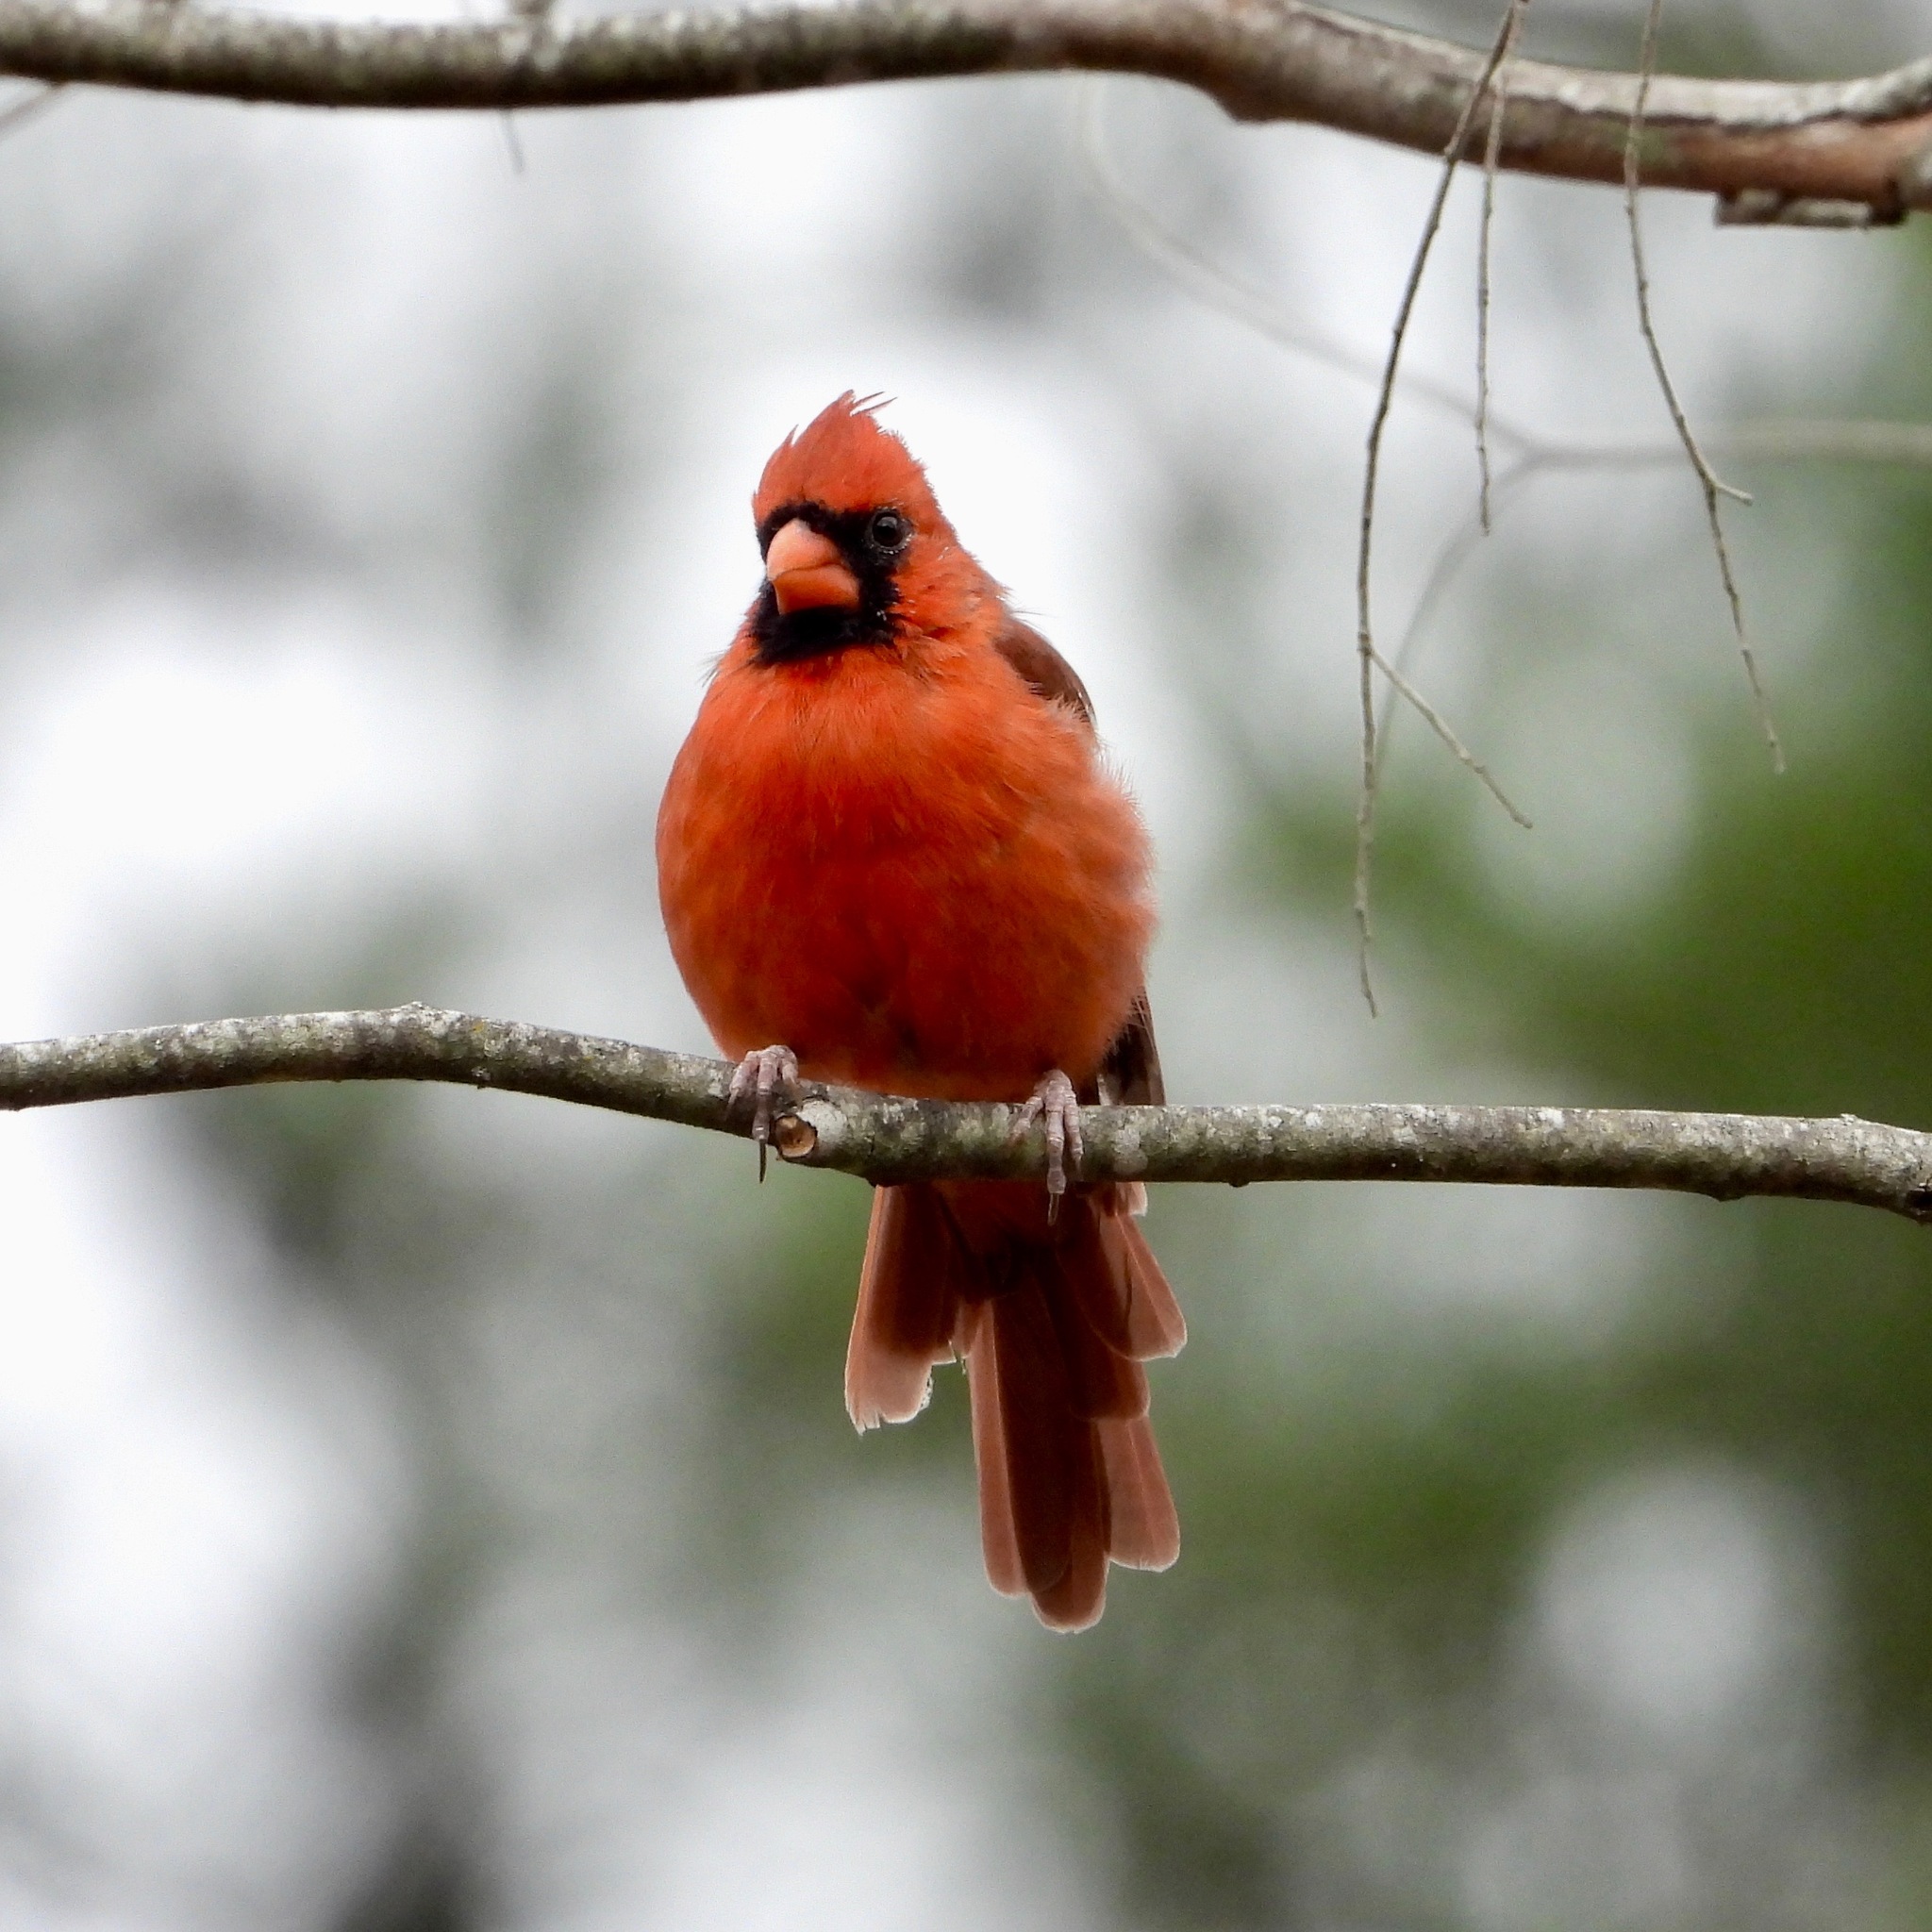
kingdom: Animalia
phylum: Chordata
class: Aves
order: Passeriformes
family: Cardinalidae
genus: Cardinalis
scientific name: Cardinalis cardinalis
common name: Northern cardinal
